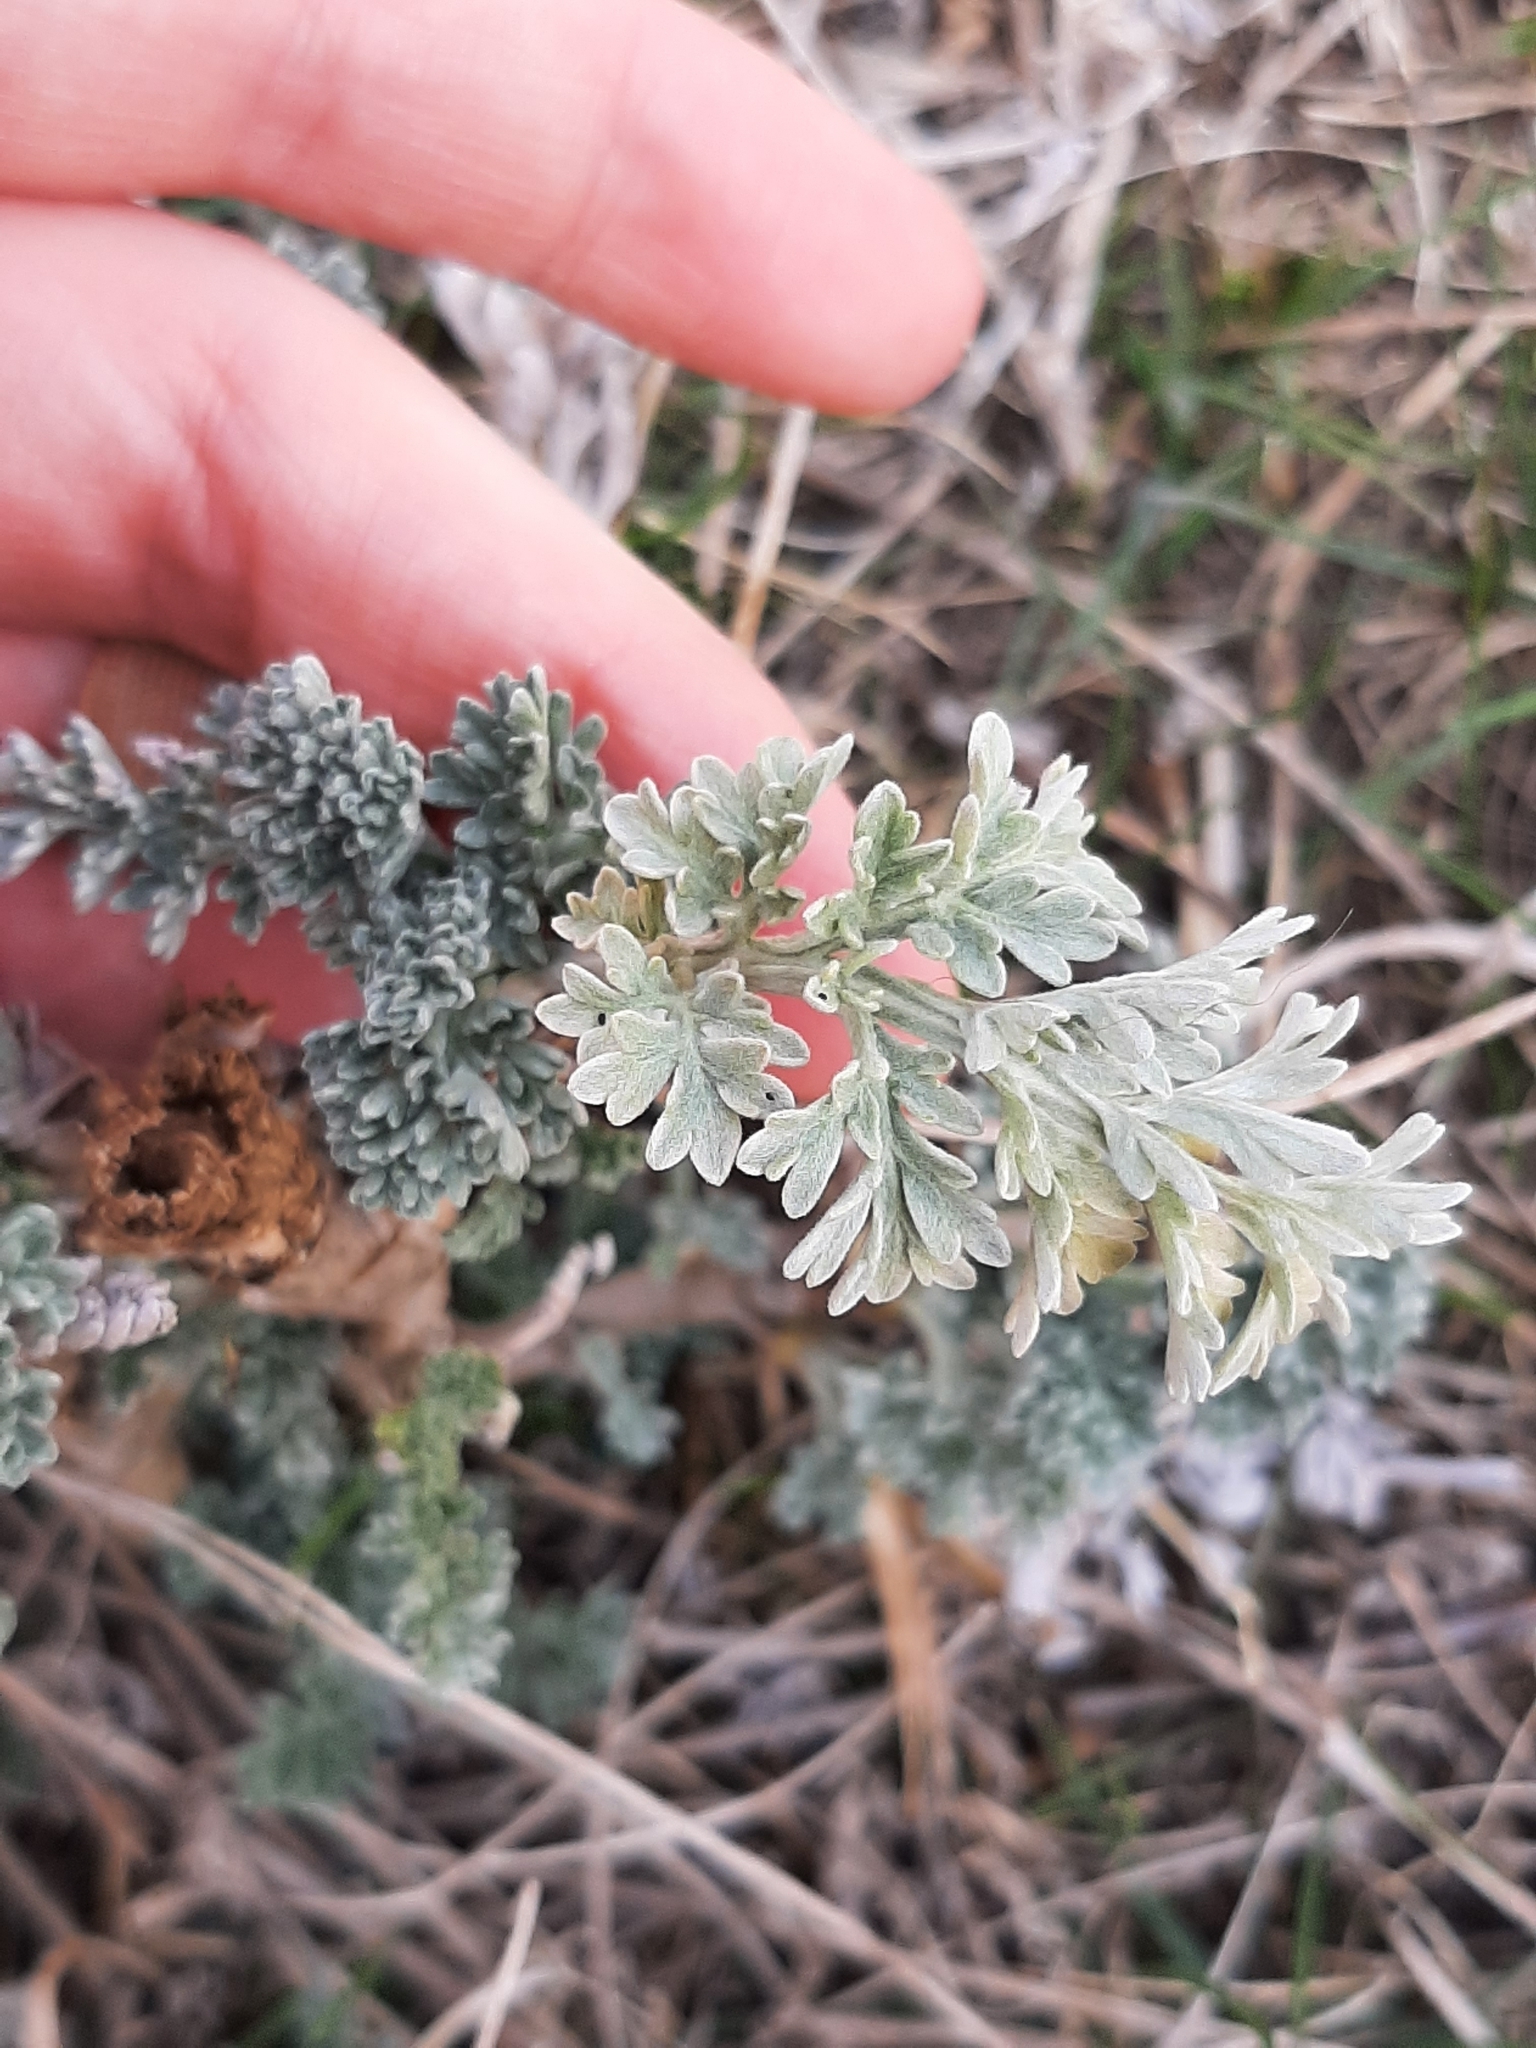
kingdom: Plantae
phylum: Tracheophyta
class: Magnoliopsida
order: Asterales
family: Asteraceae
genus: Artemisia
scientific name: Artemisia absinthium
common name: Wormwood
